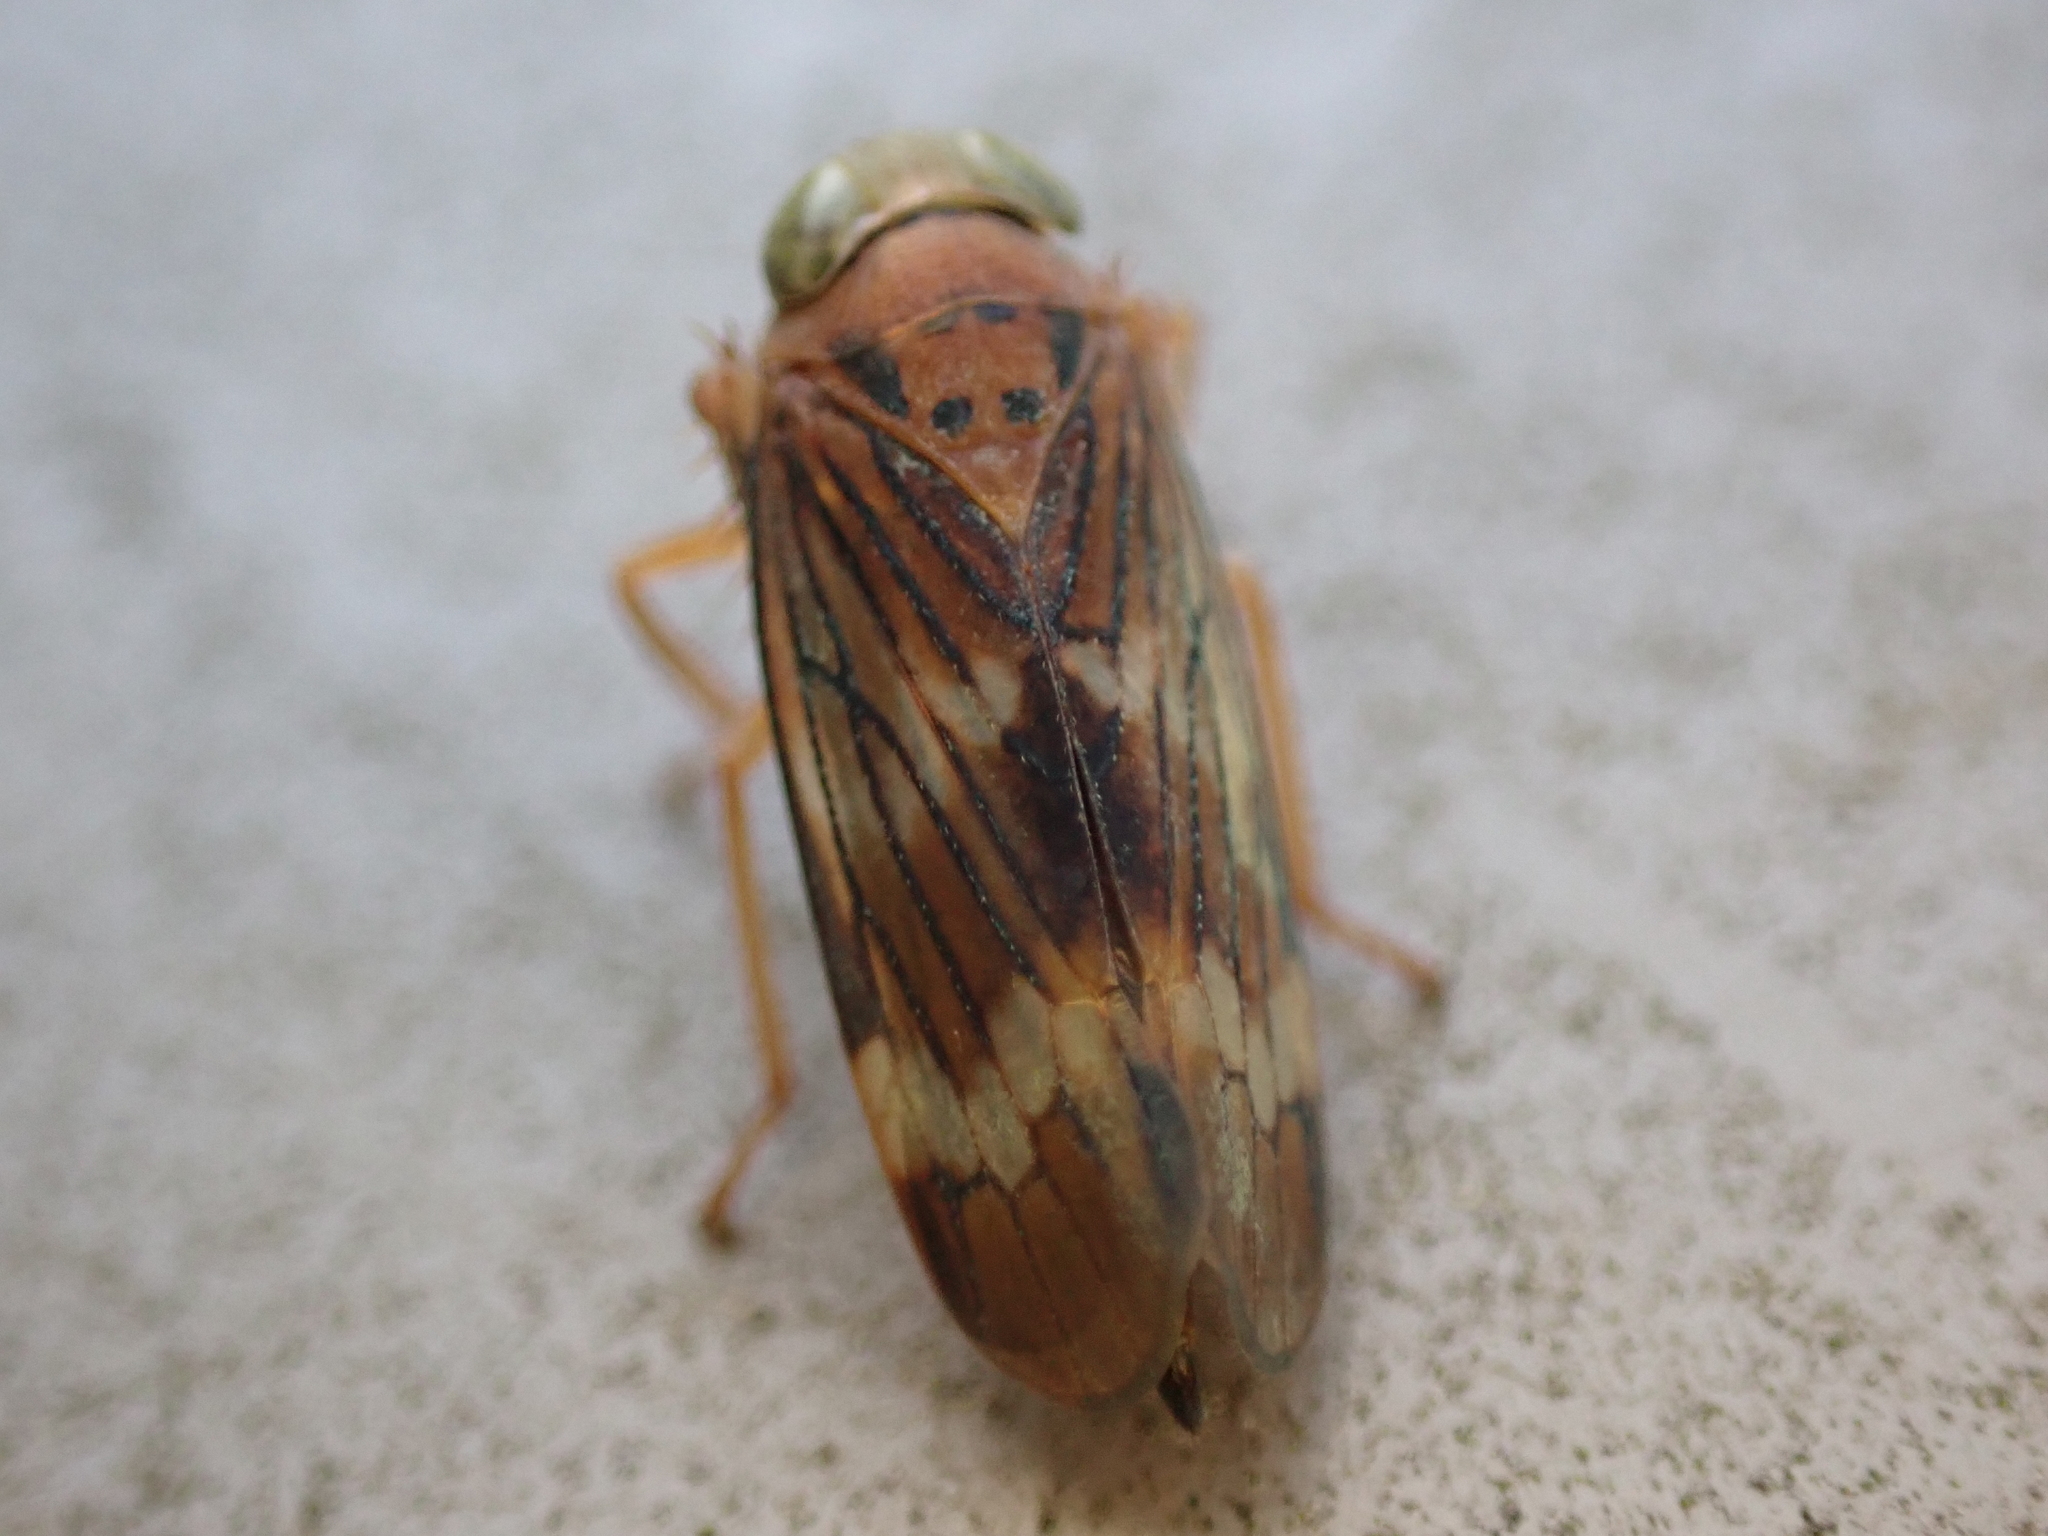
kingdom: Animalia
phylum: Arthropoda
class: Insecta
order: Hemiptera
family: Cicadellidae
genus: Jikradia
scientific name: Jikradia olitoria
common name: Coppery leafhopper
